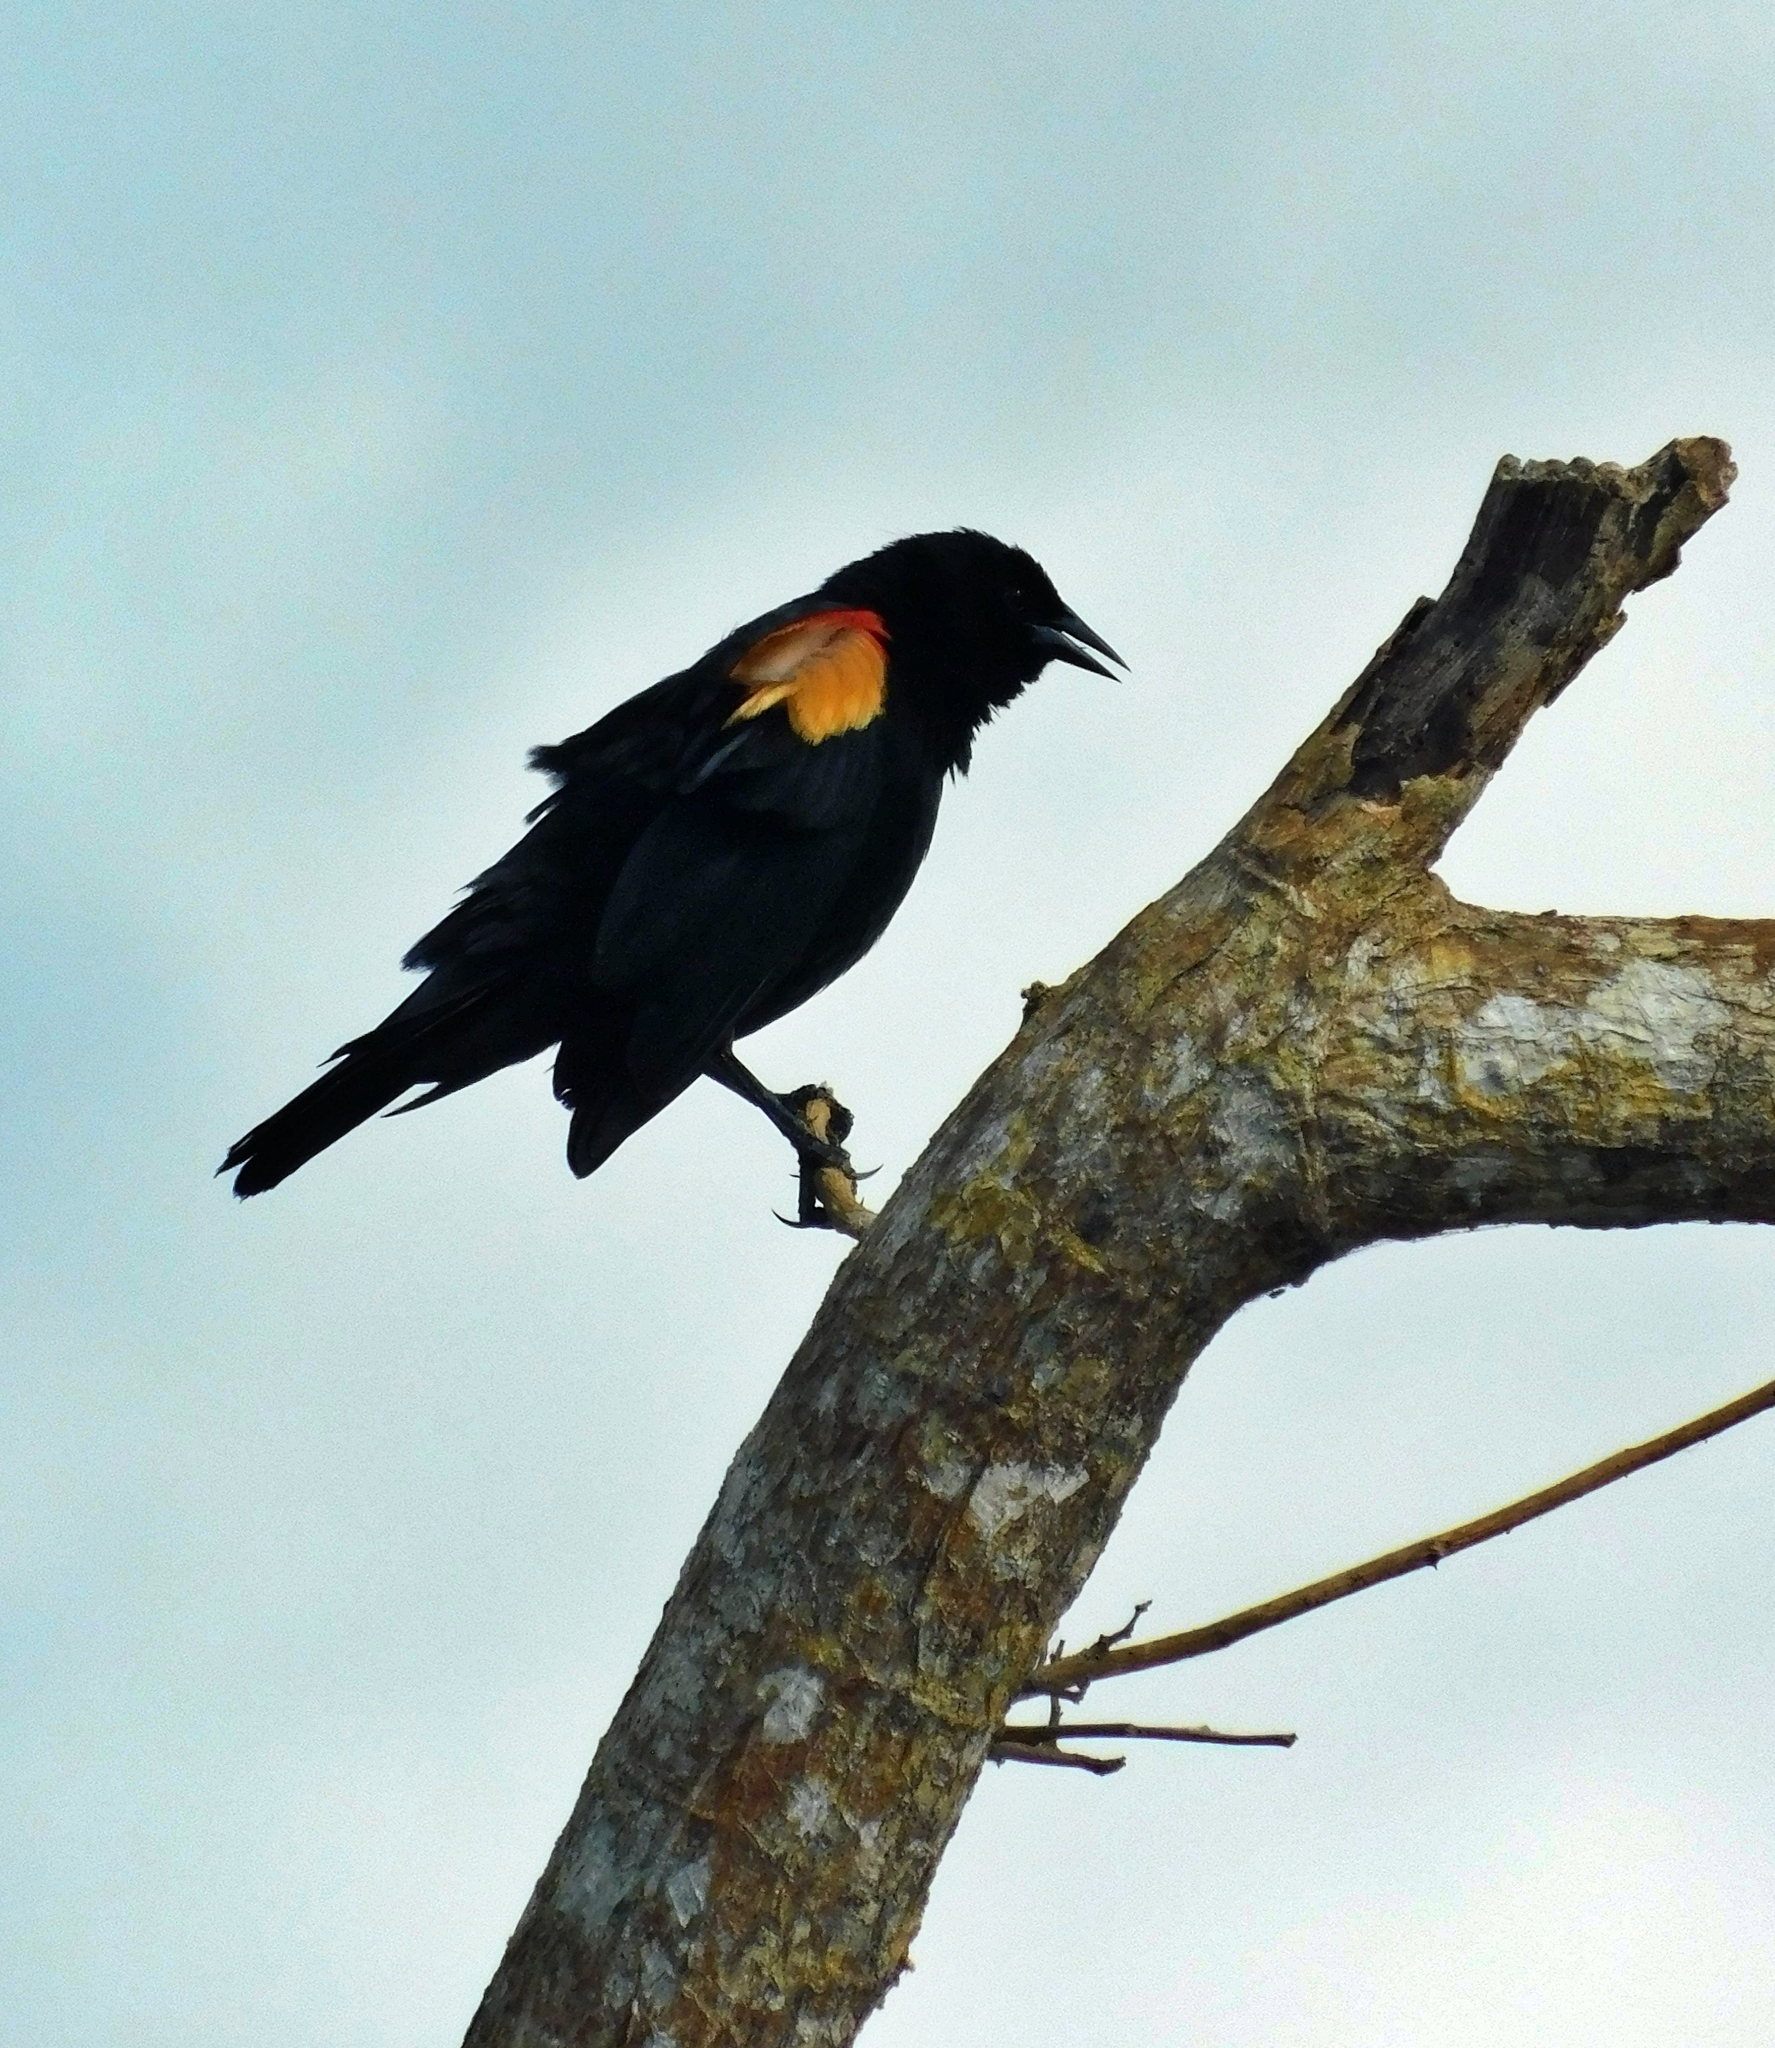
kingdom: Animalia
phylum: Chordata
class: Aves
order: Passeriformes
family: Icteridae
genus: Agelaius
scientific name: Agelaius phoeniceus
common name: Red-winged blackbird
